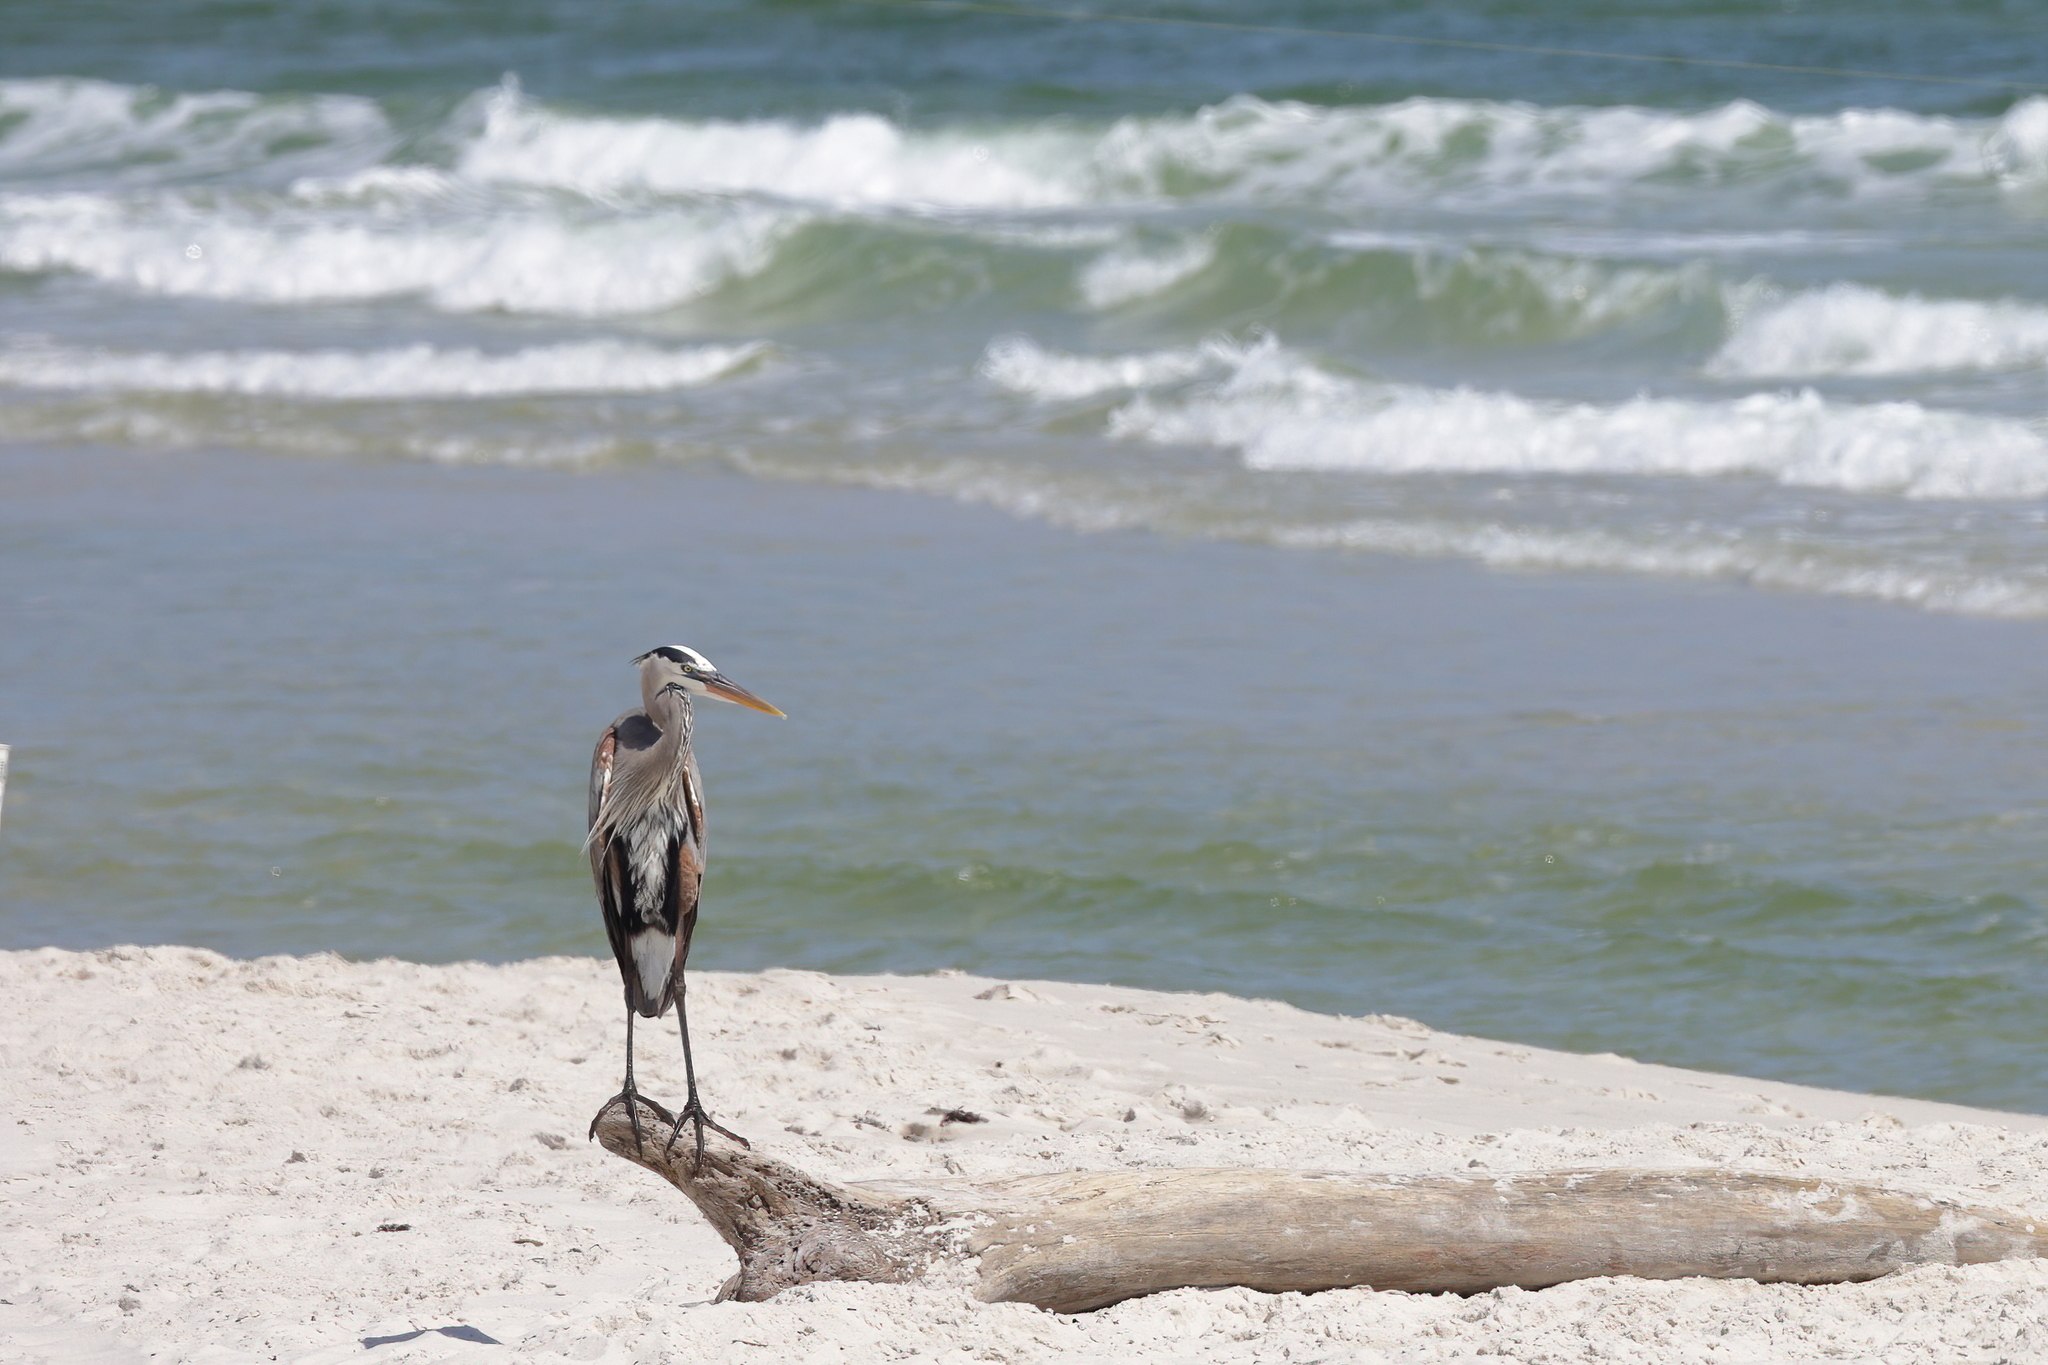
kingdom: Animalia
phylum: Chordata
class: Aves
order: Pelecaniformes
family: Ardeidae
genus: Ardea
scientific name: Ardea herodias
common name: Great blue heron
